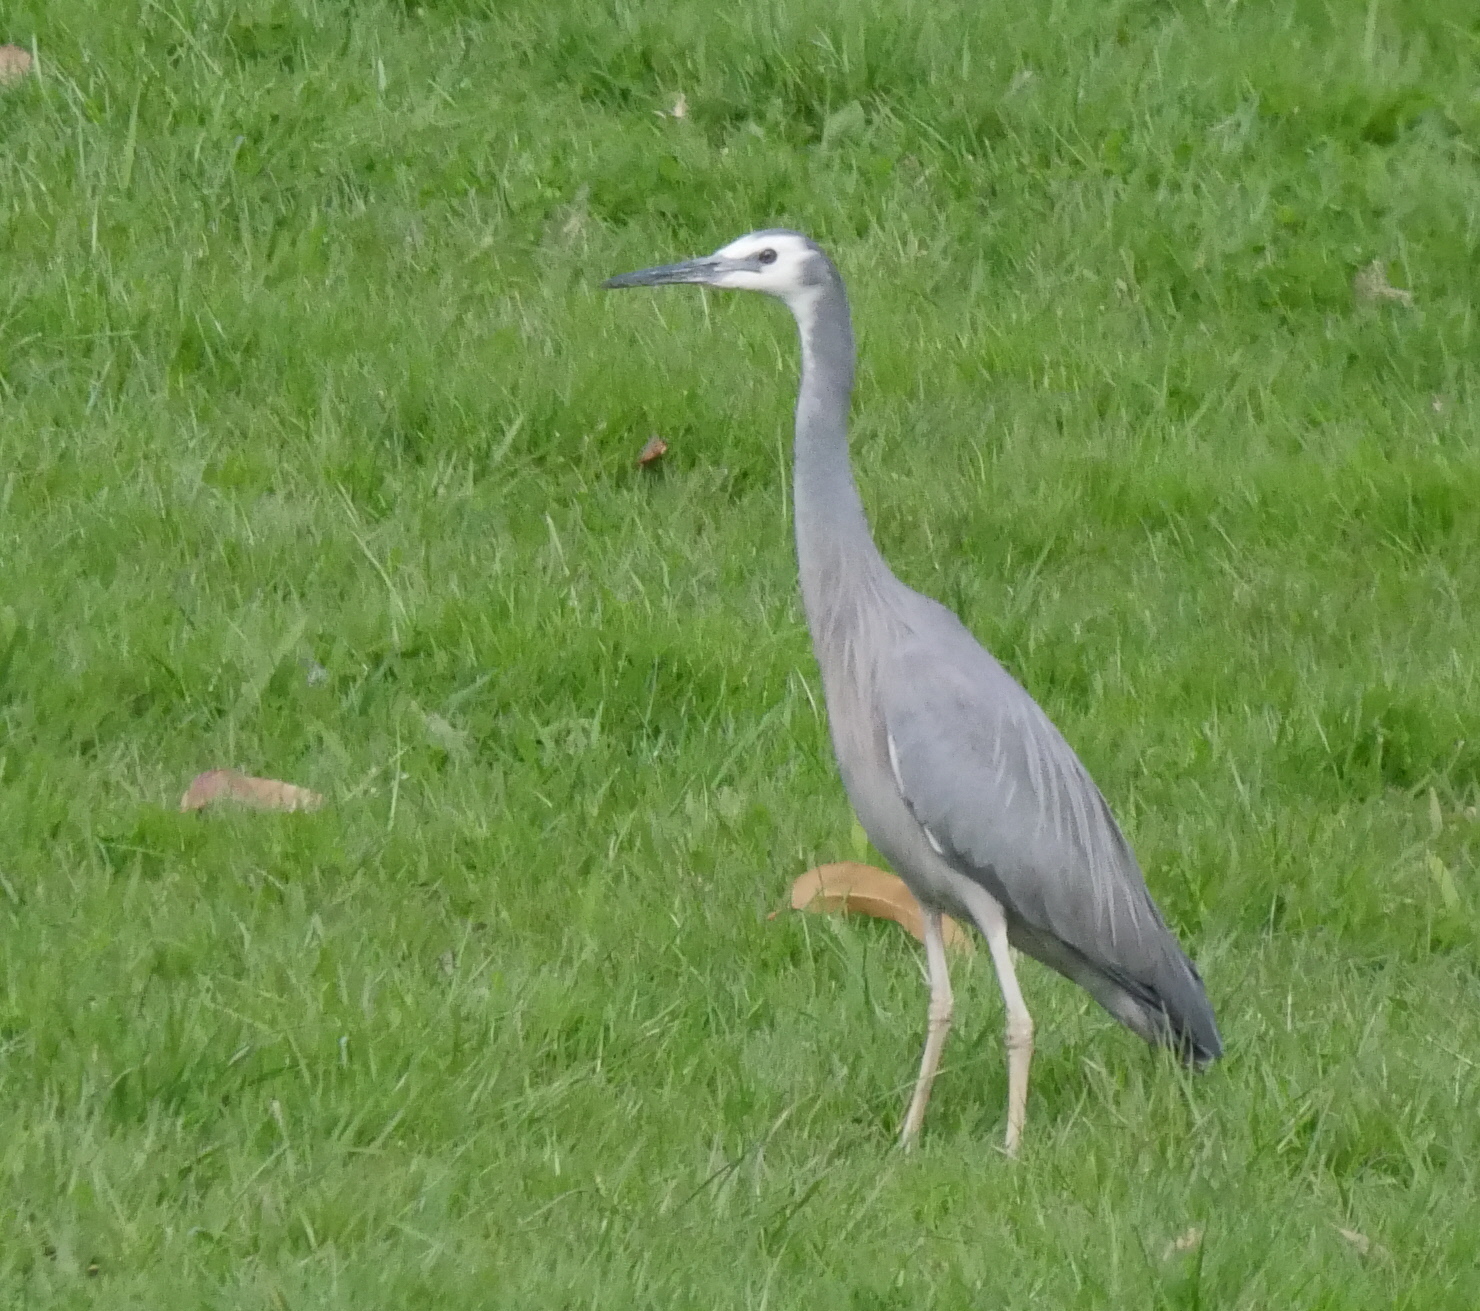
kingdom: Animalia
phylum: Chordata
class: Aves
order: Pelecaniformes
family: Ardeidae
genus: Egretta
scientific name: Egretta novaehollandiae
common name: White-faced heron
